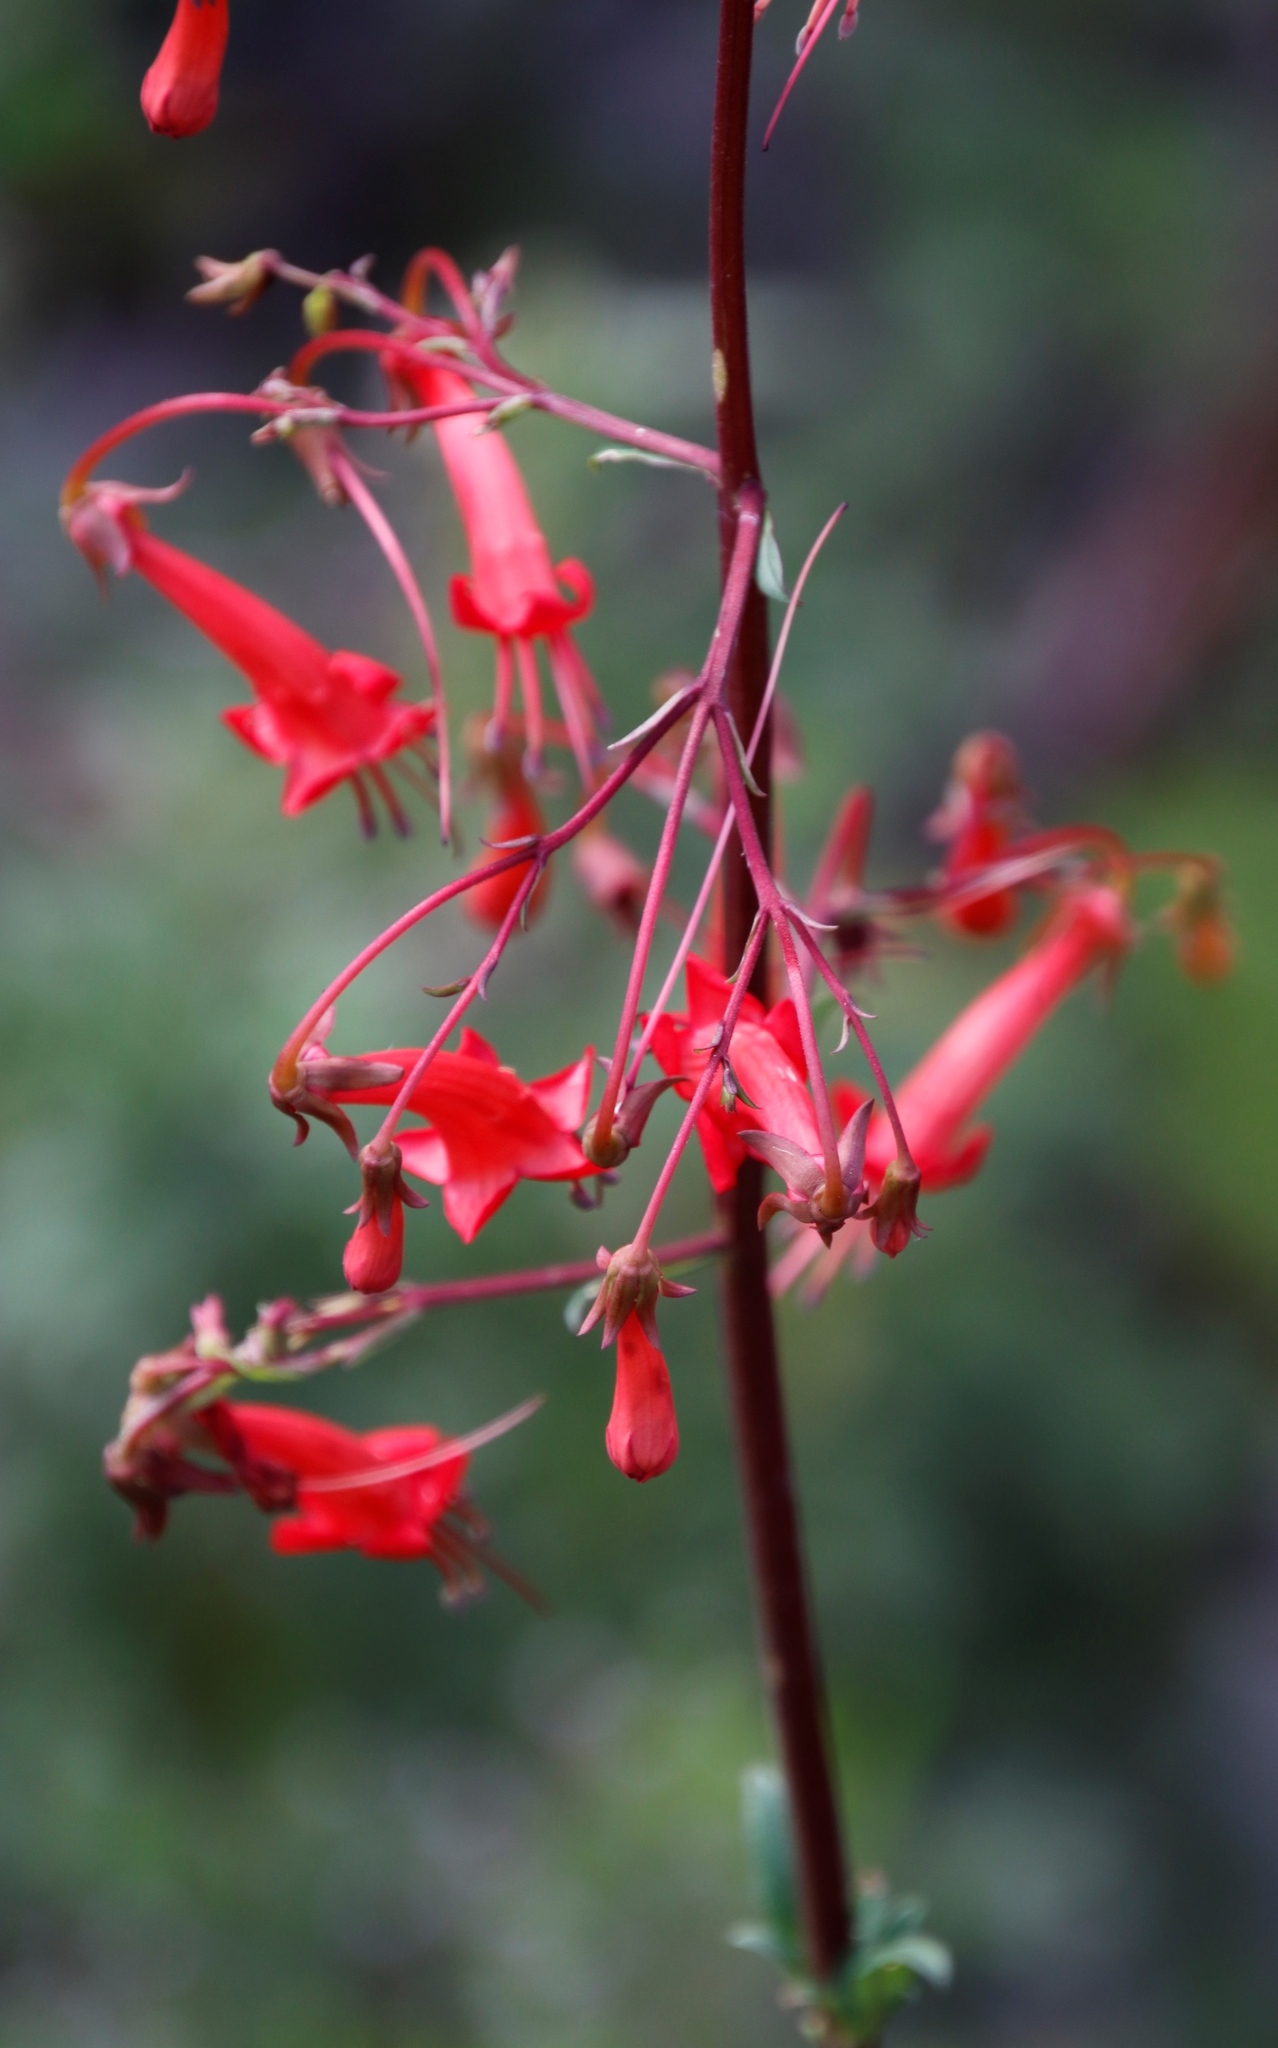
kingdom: Plantae
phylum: Tracheophyta
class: Magnoliopsida
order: Lamiales
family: Scrophulariaceae
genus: Phygelius
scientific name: Phygelius capensis
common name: Cape figwort
